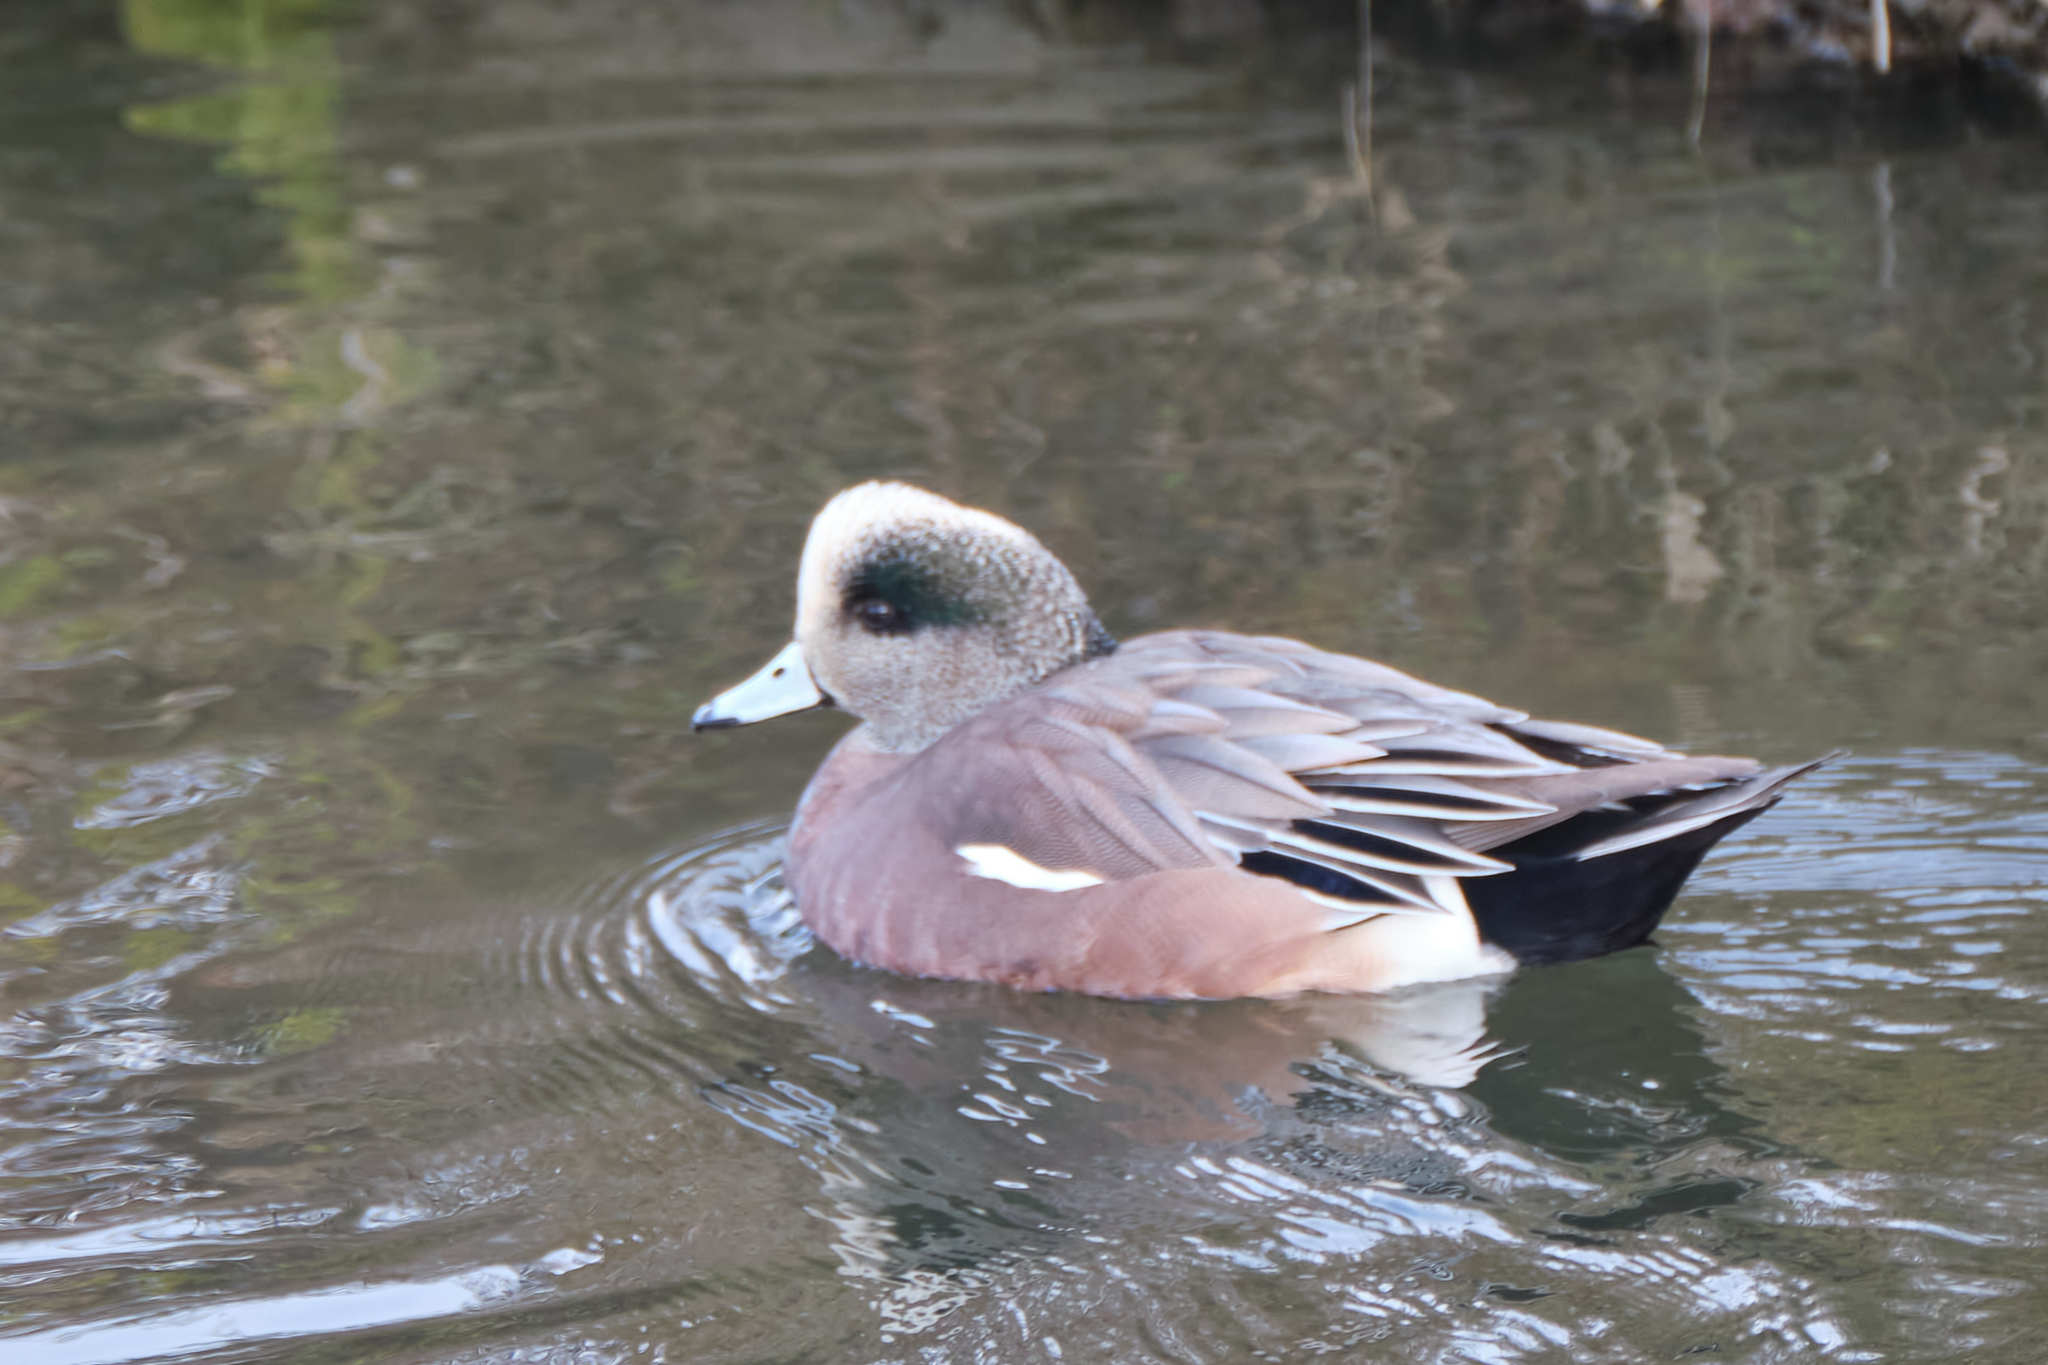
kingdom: Animalia
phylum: Chordata
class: Aves
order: Anseriformes
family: Anatidae
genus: Mareca
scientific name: Mareca americana
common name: American wigeon
